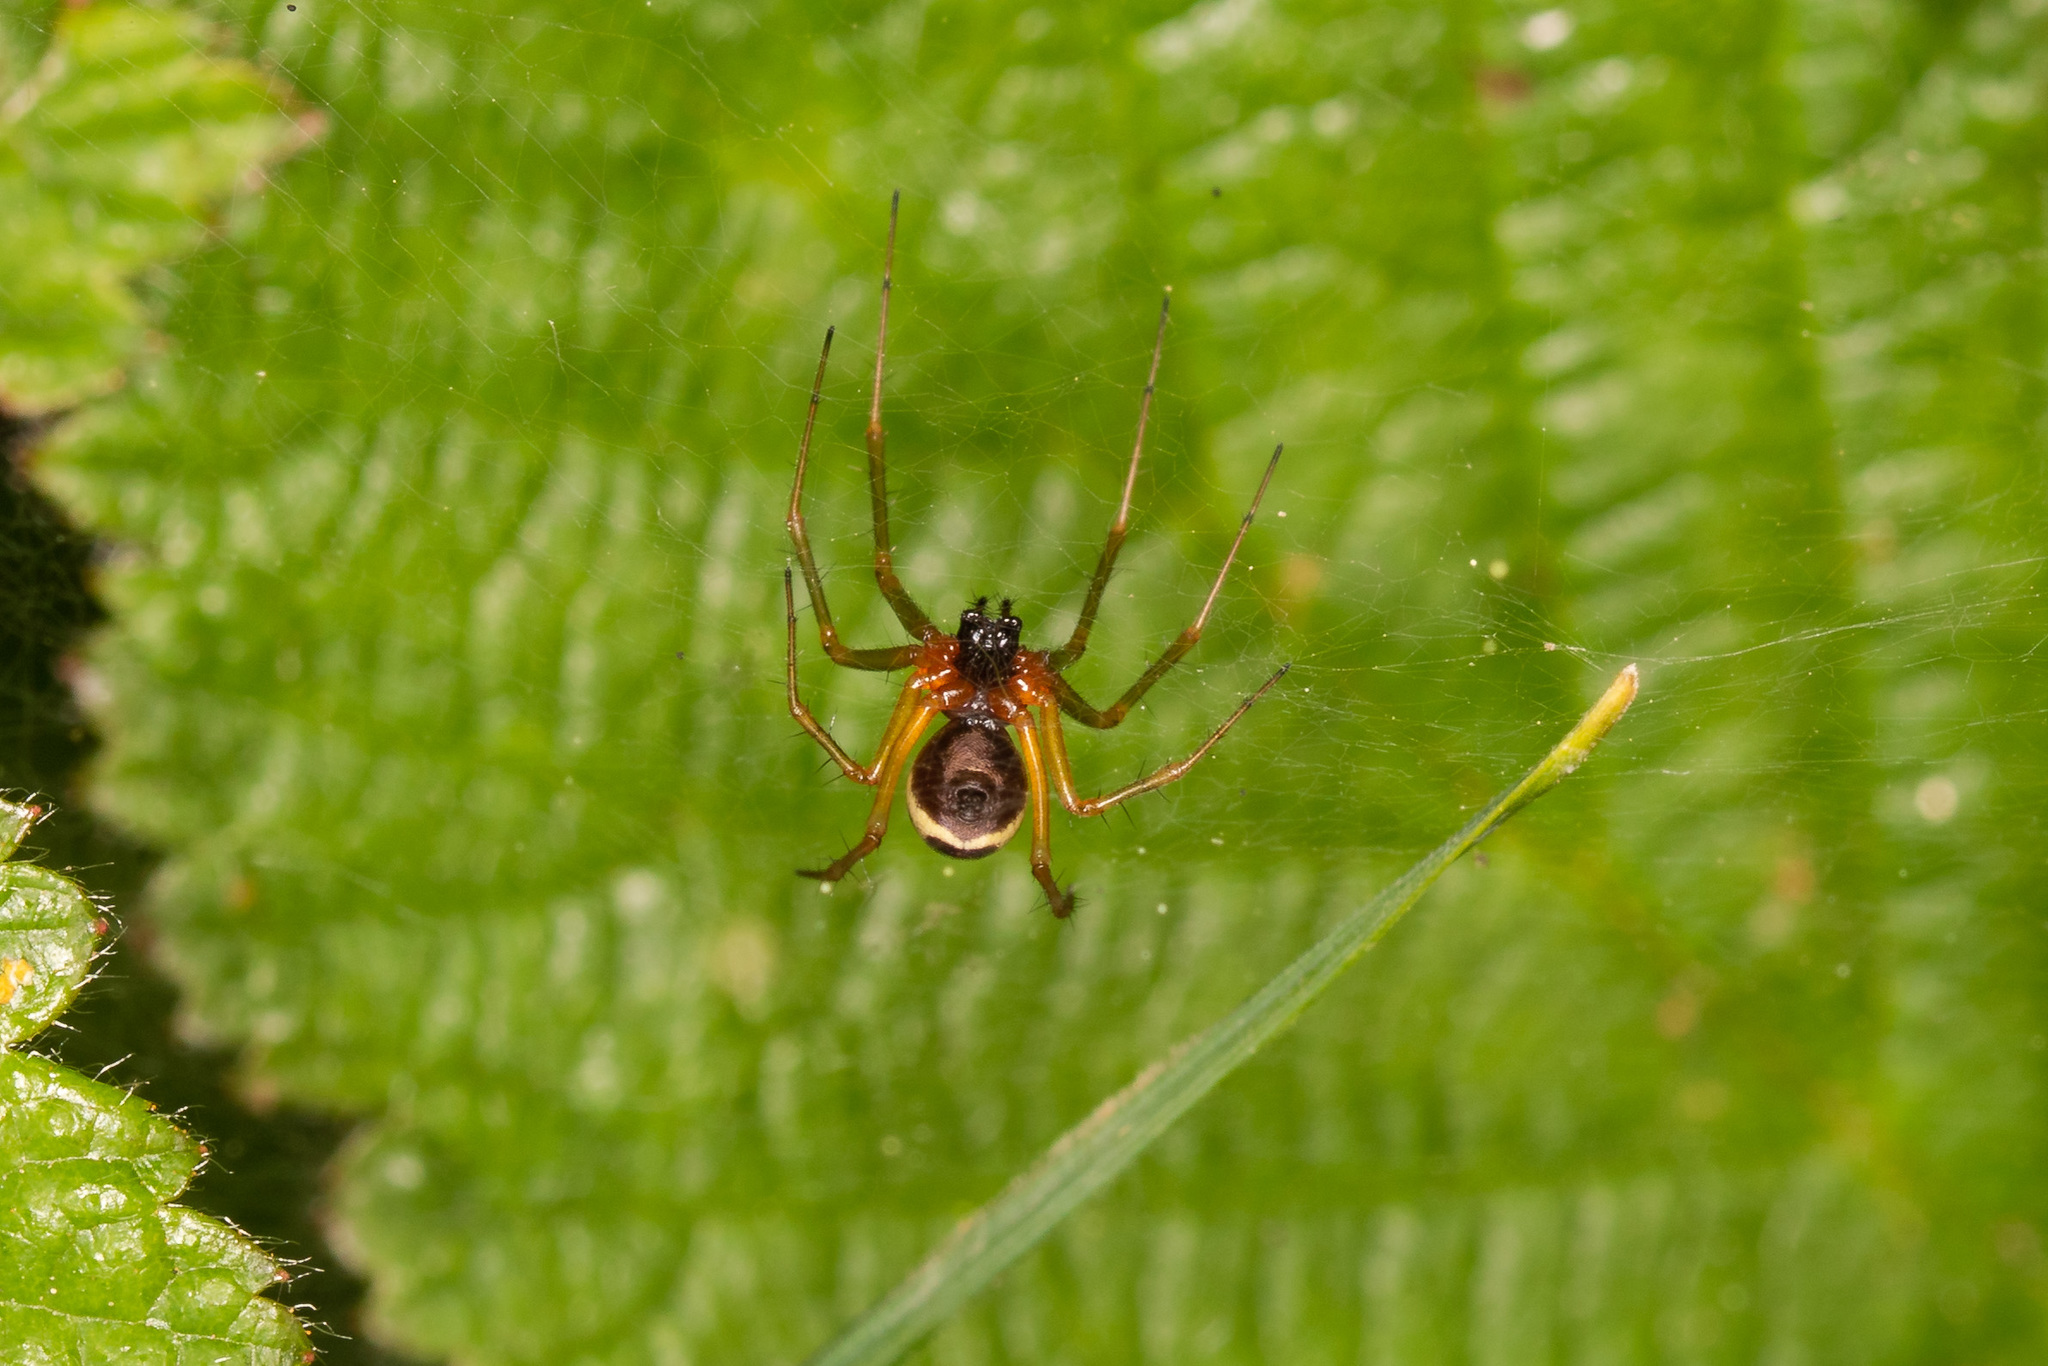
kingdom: Animalia
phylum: Arthropoda
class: Arachnida
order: Araneae
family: Linyphiidae
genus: Linyphia
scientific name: Linyphia hortensis
